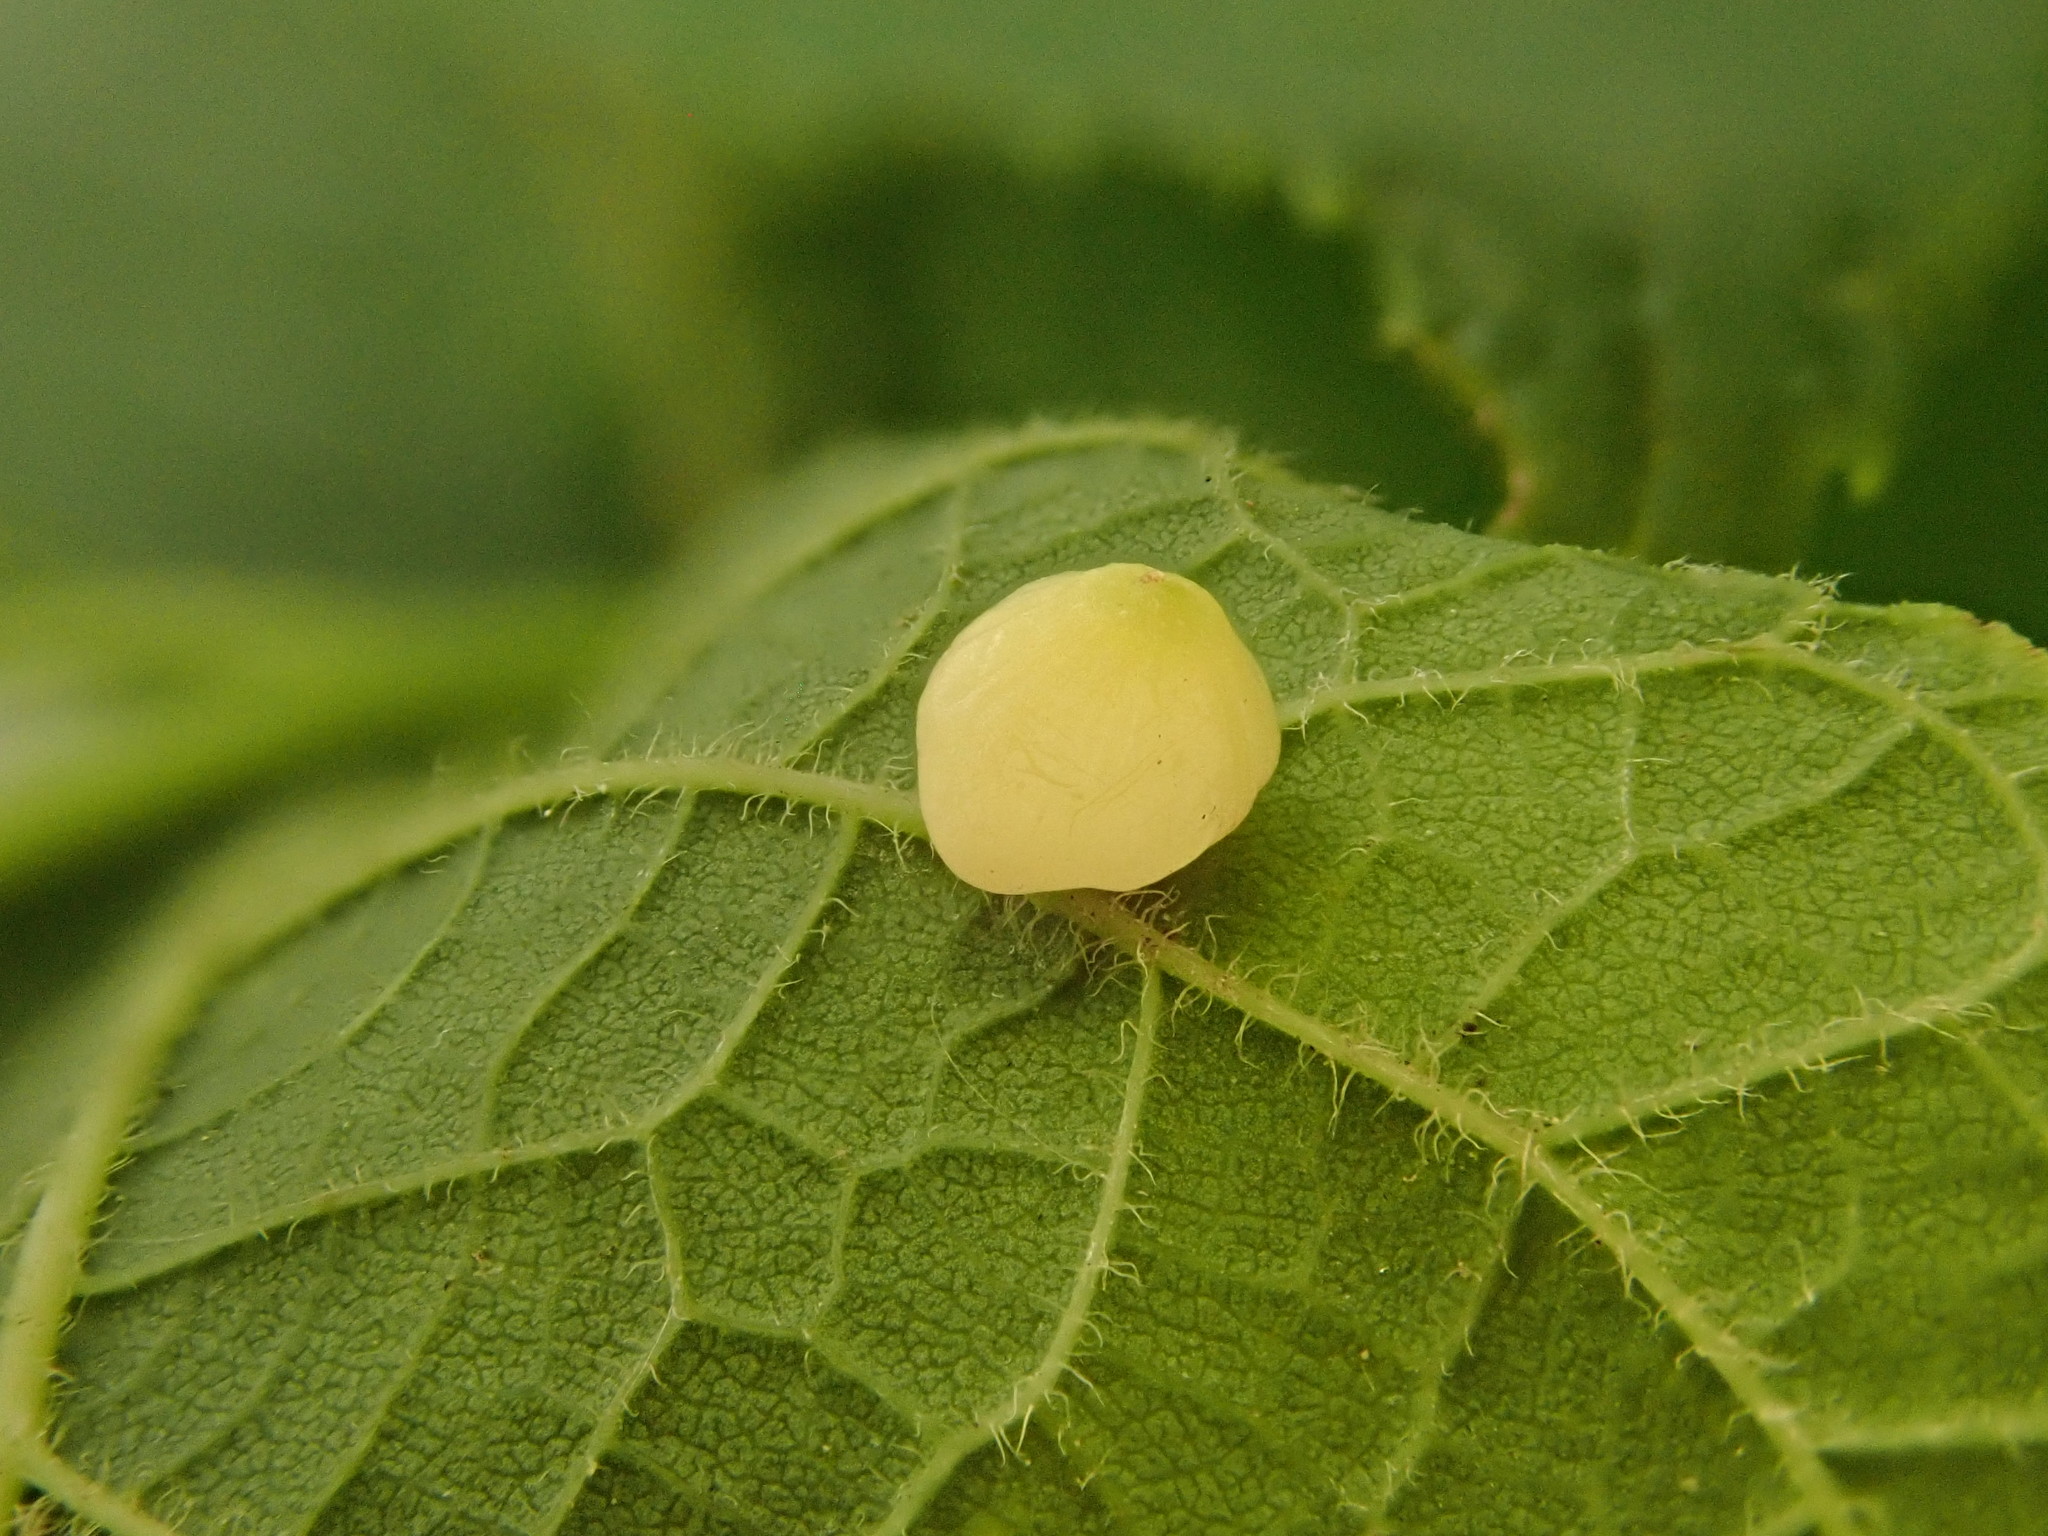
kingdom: Animalia
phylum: Arthropoda
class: Insecta
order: Diptera
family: Cecidomyiidae
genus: Celticecis
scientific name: Celticecis globosa
